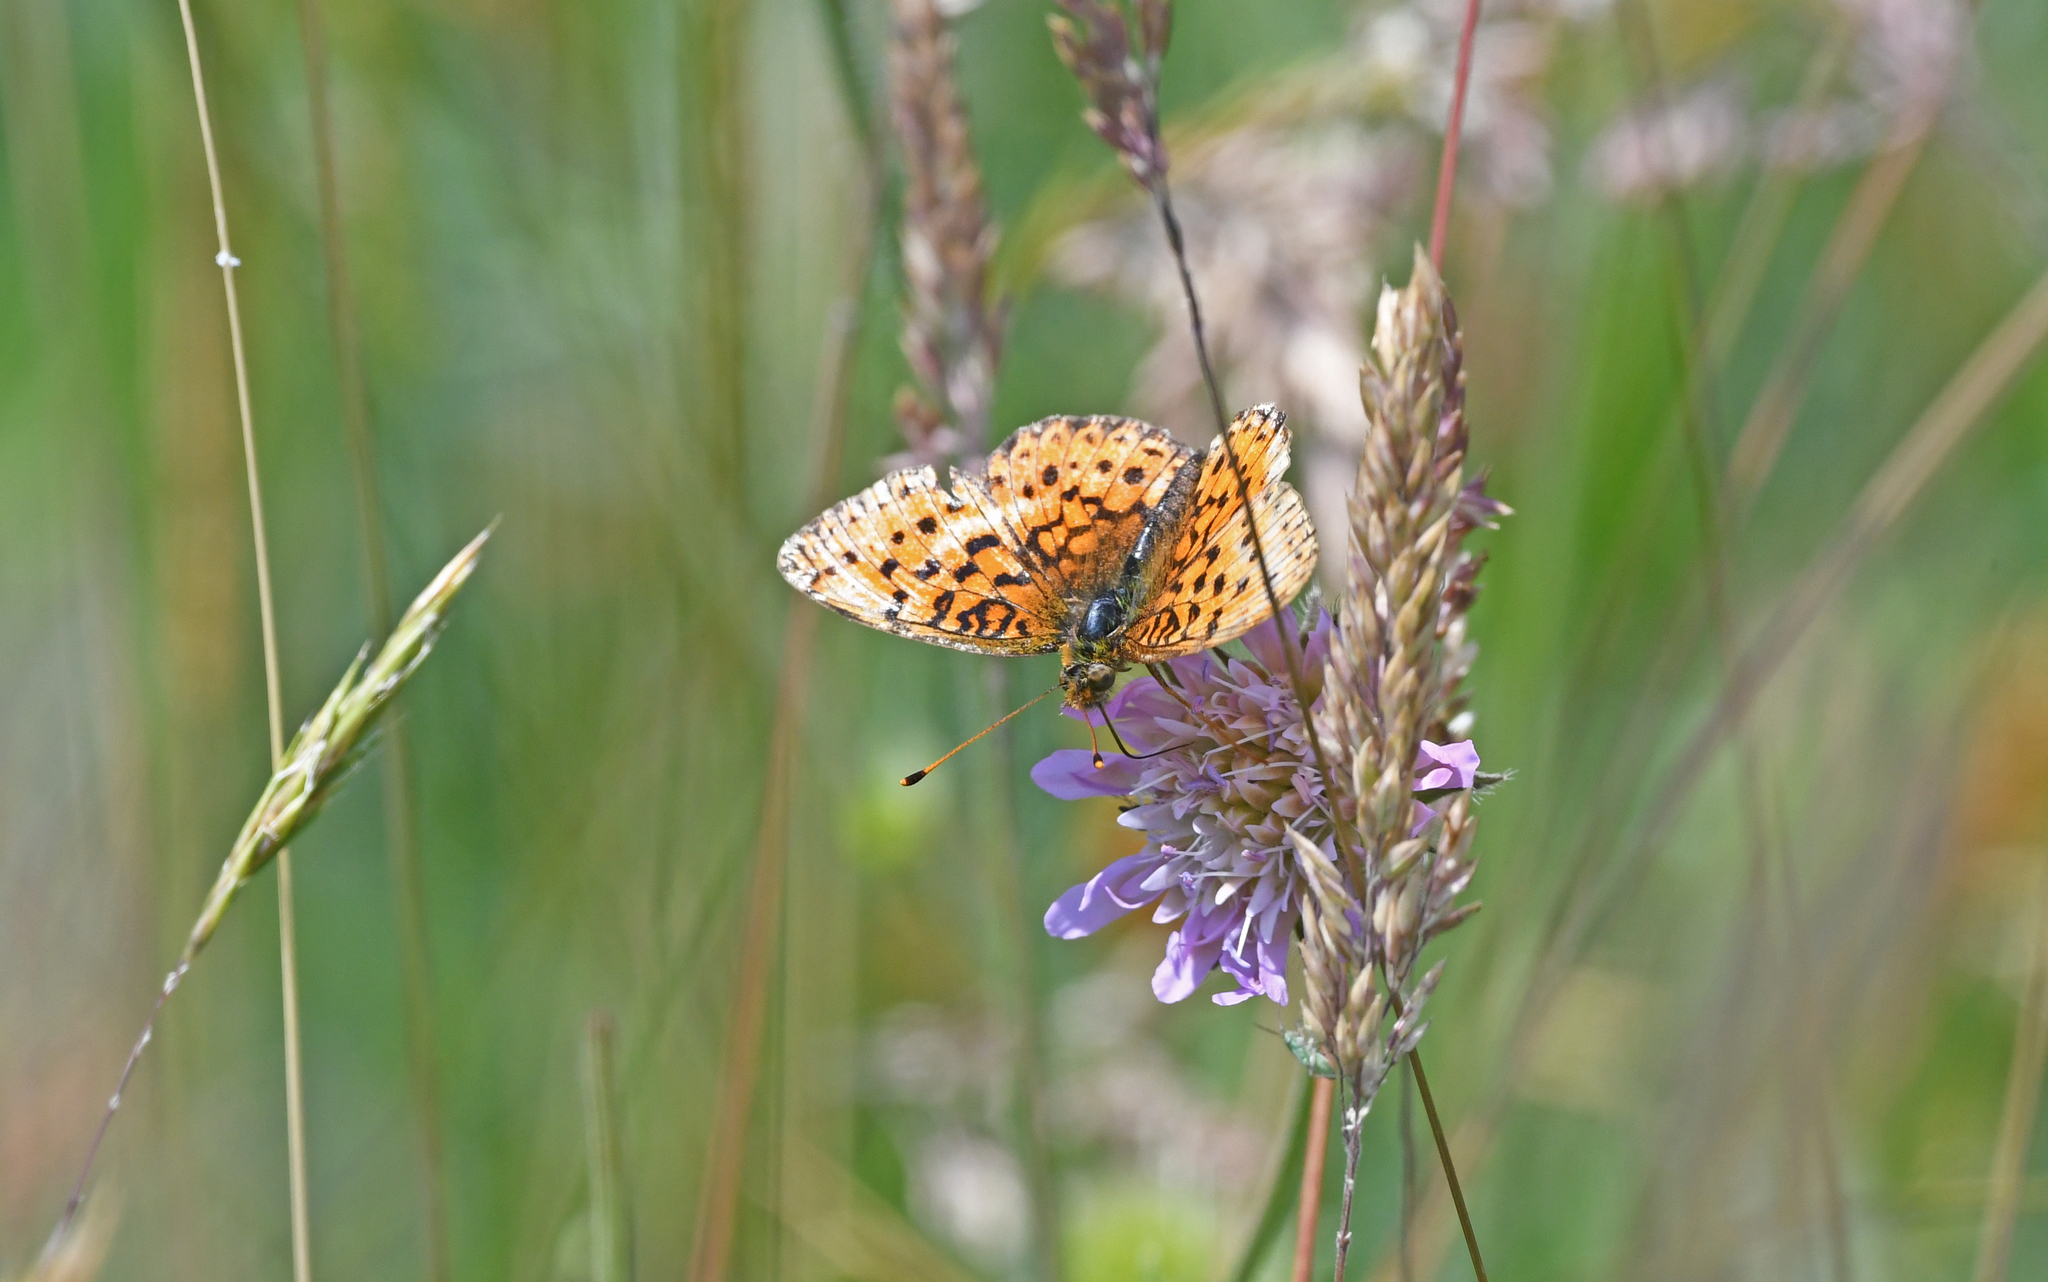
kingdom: Animalia
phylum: Arthropoda
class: Insecta
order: Lepidoptera
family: Nymphalidae
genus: Brenthis
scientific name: Brenthis ino
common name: Lesser marbled fritillary
